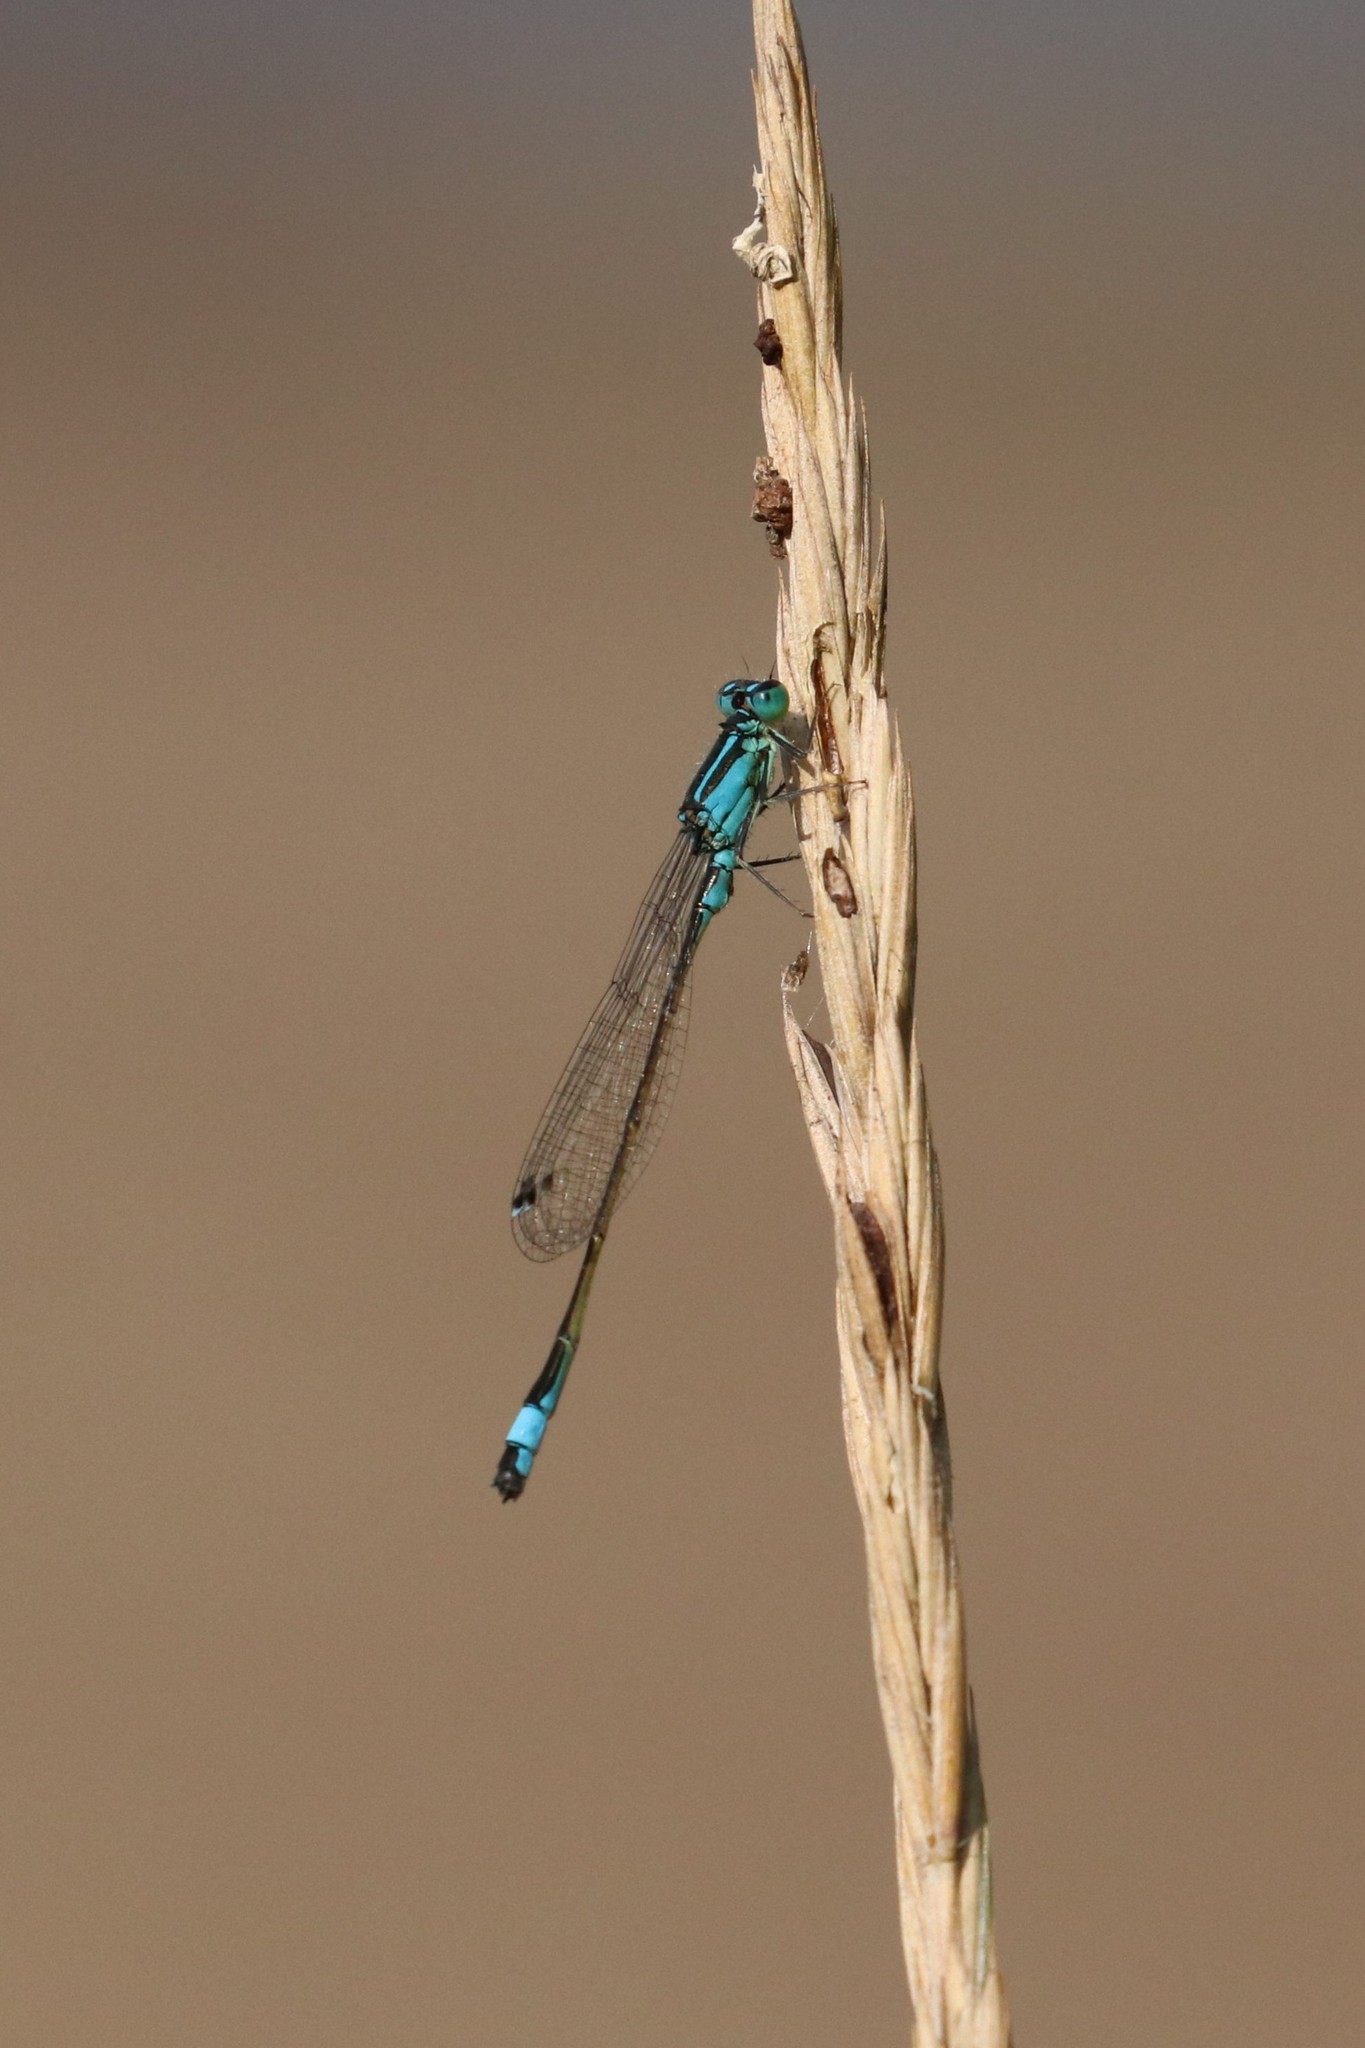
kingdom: Animalia
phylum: Arthropoda
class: Insecta
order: Odonata
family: Coenagrionidae
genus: Ischnura
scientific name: Ischnura elegans
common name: Blue-tailed damselfly
